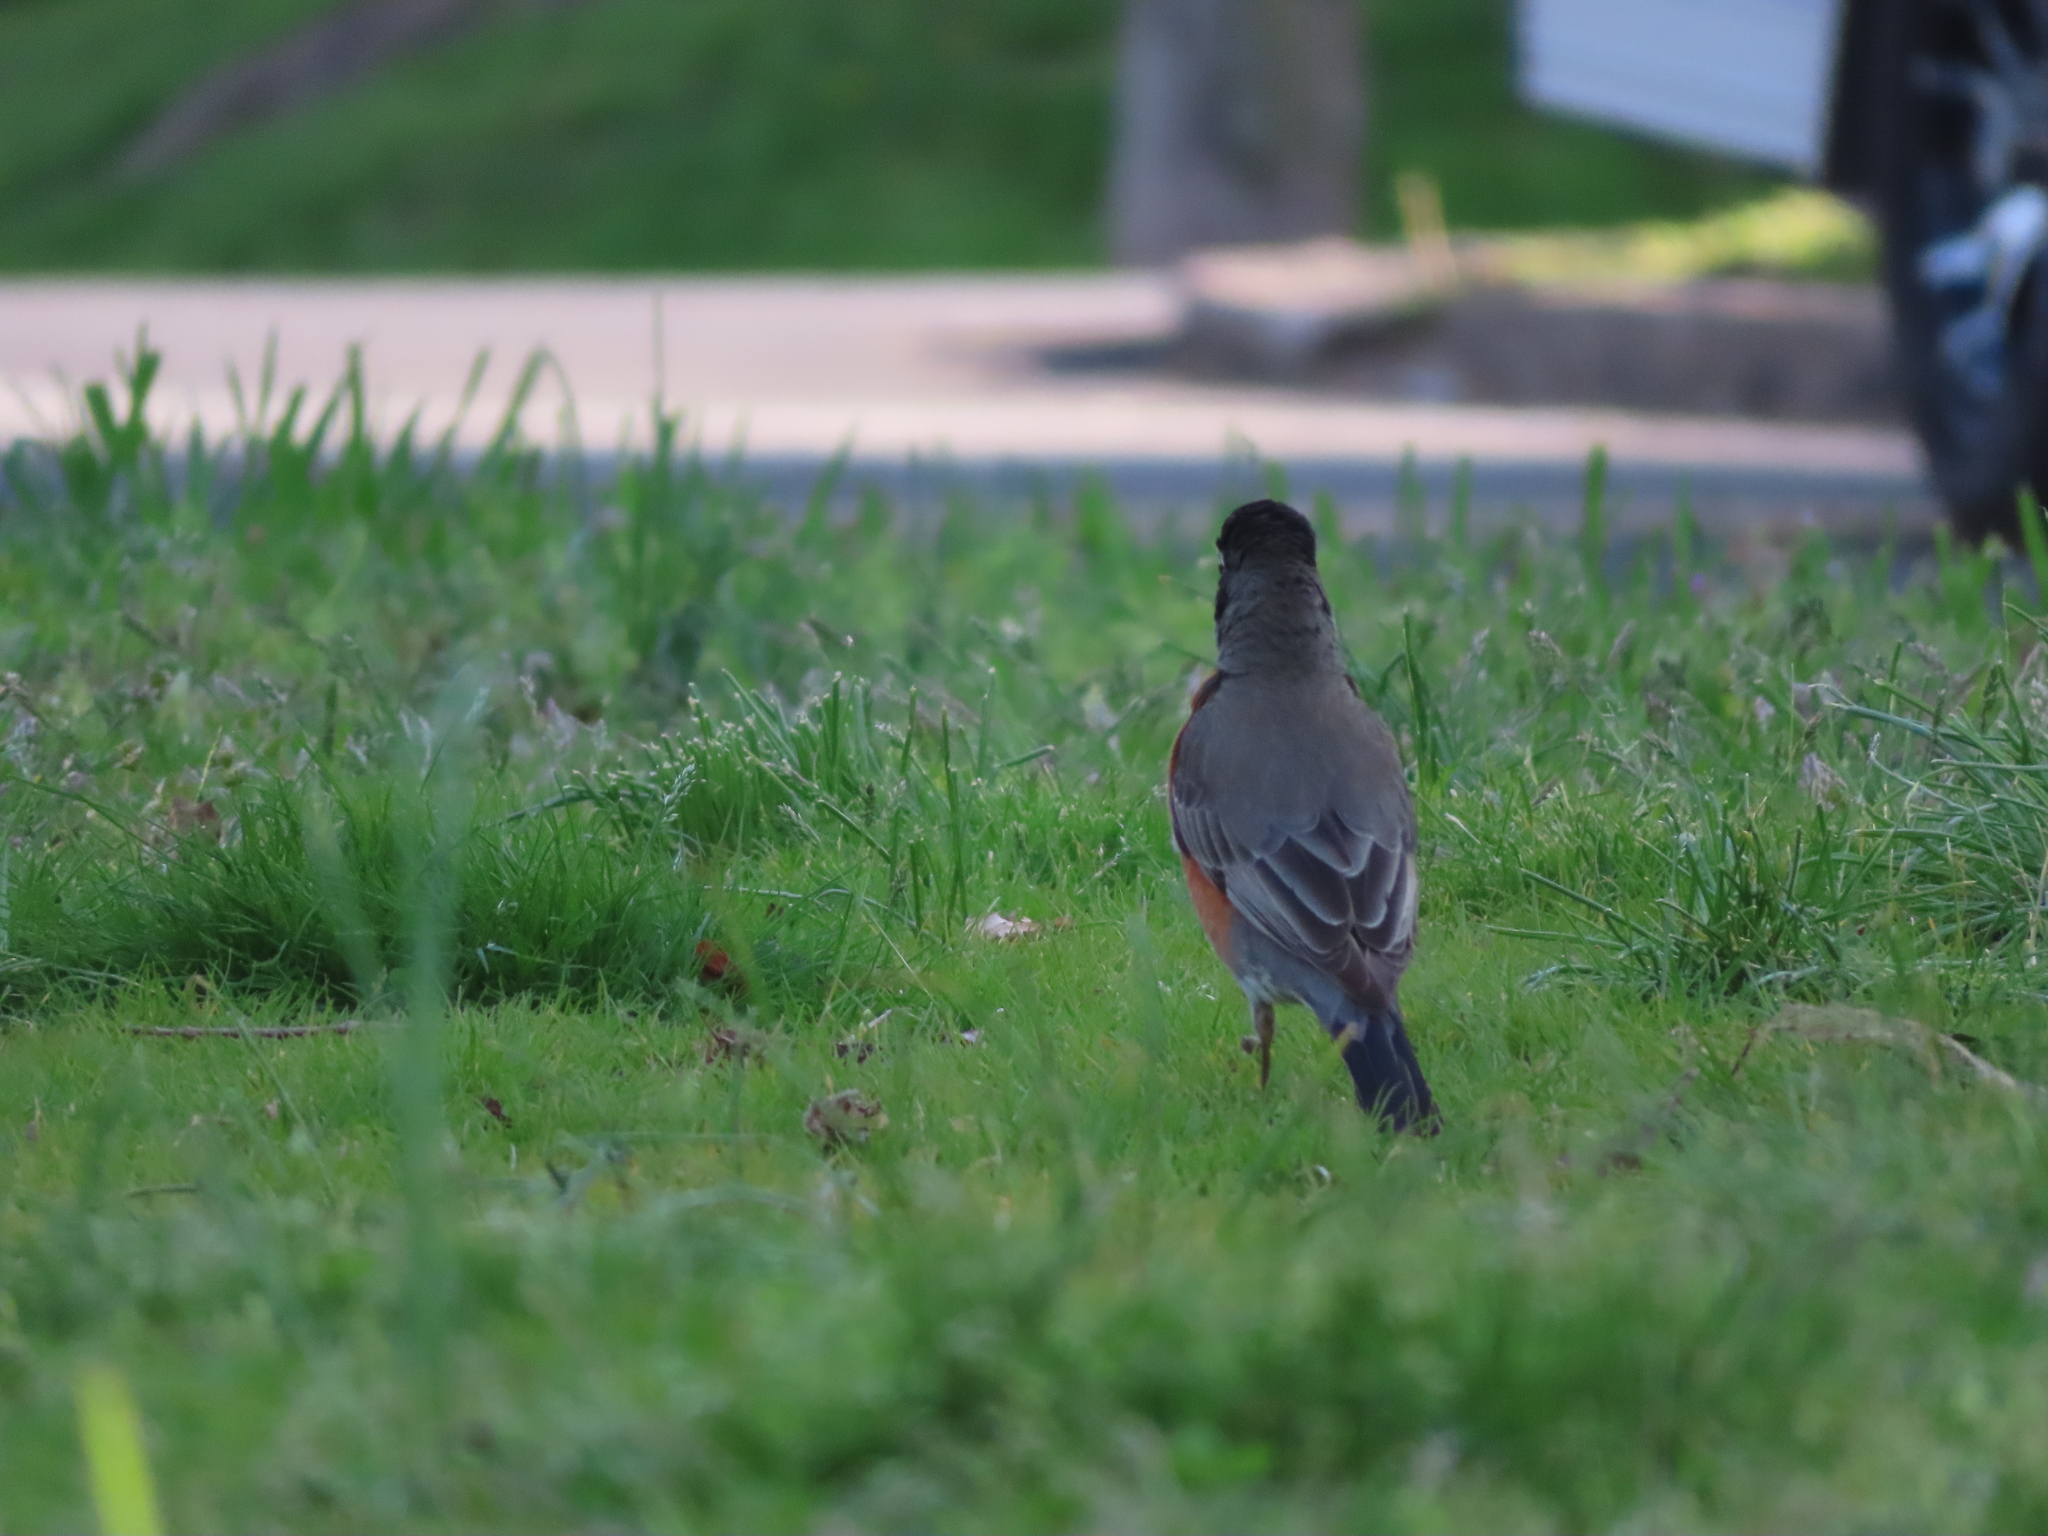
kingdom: Animalia
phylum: Chordata
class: Aves
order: Passeriformes
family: Turdidae
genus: Turdus
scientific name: Turdus migratorius
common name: American robin
